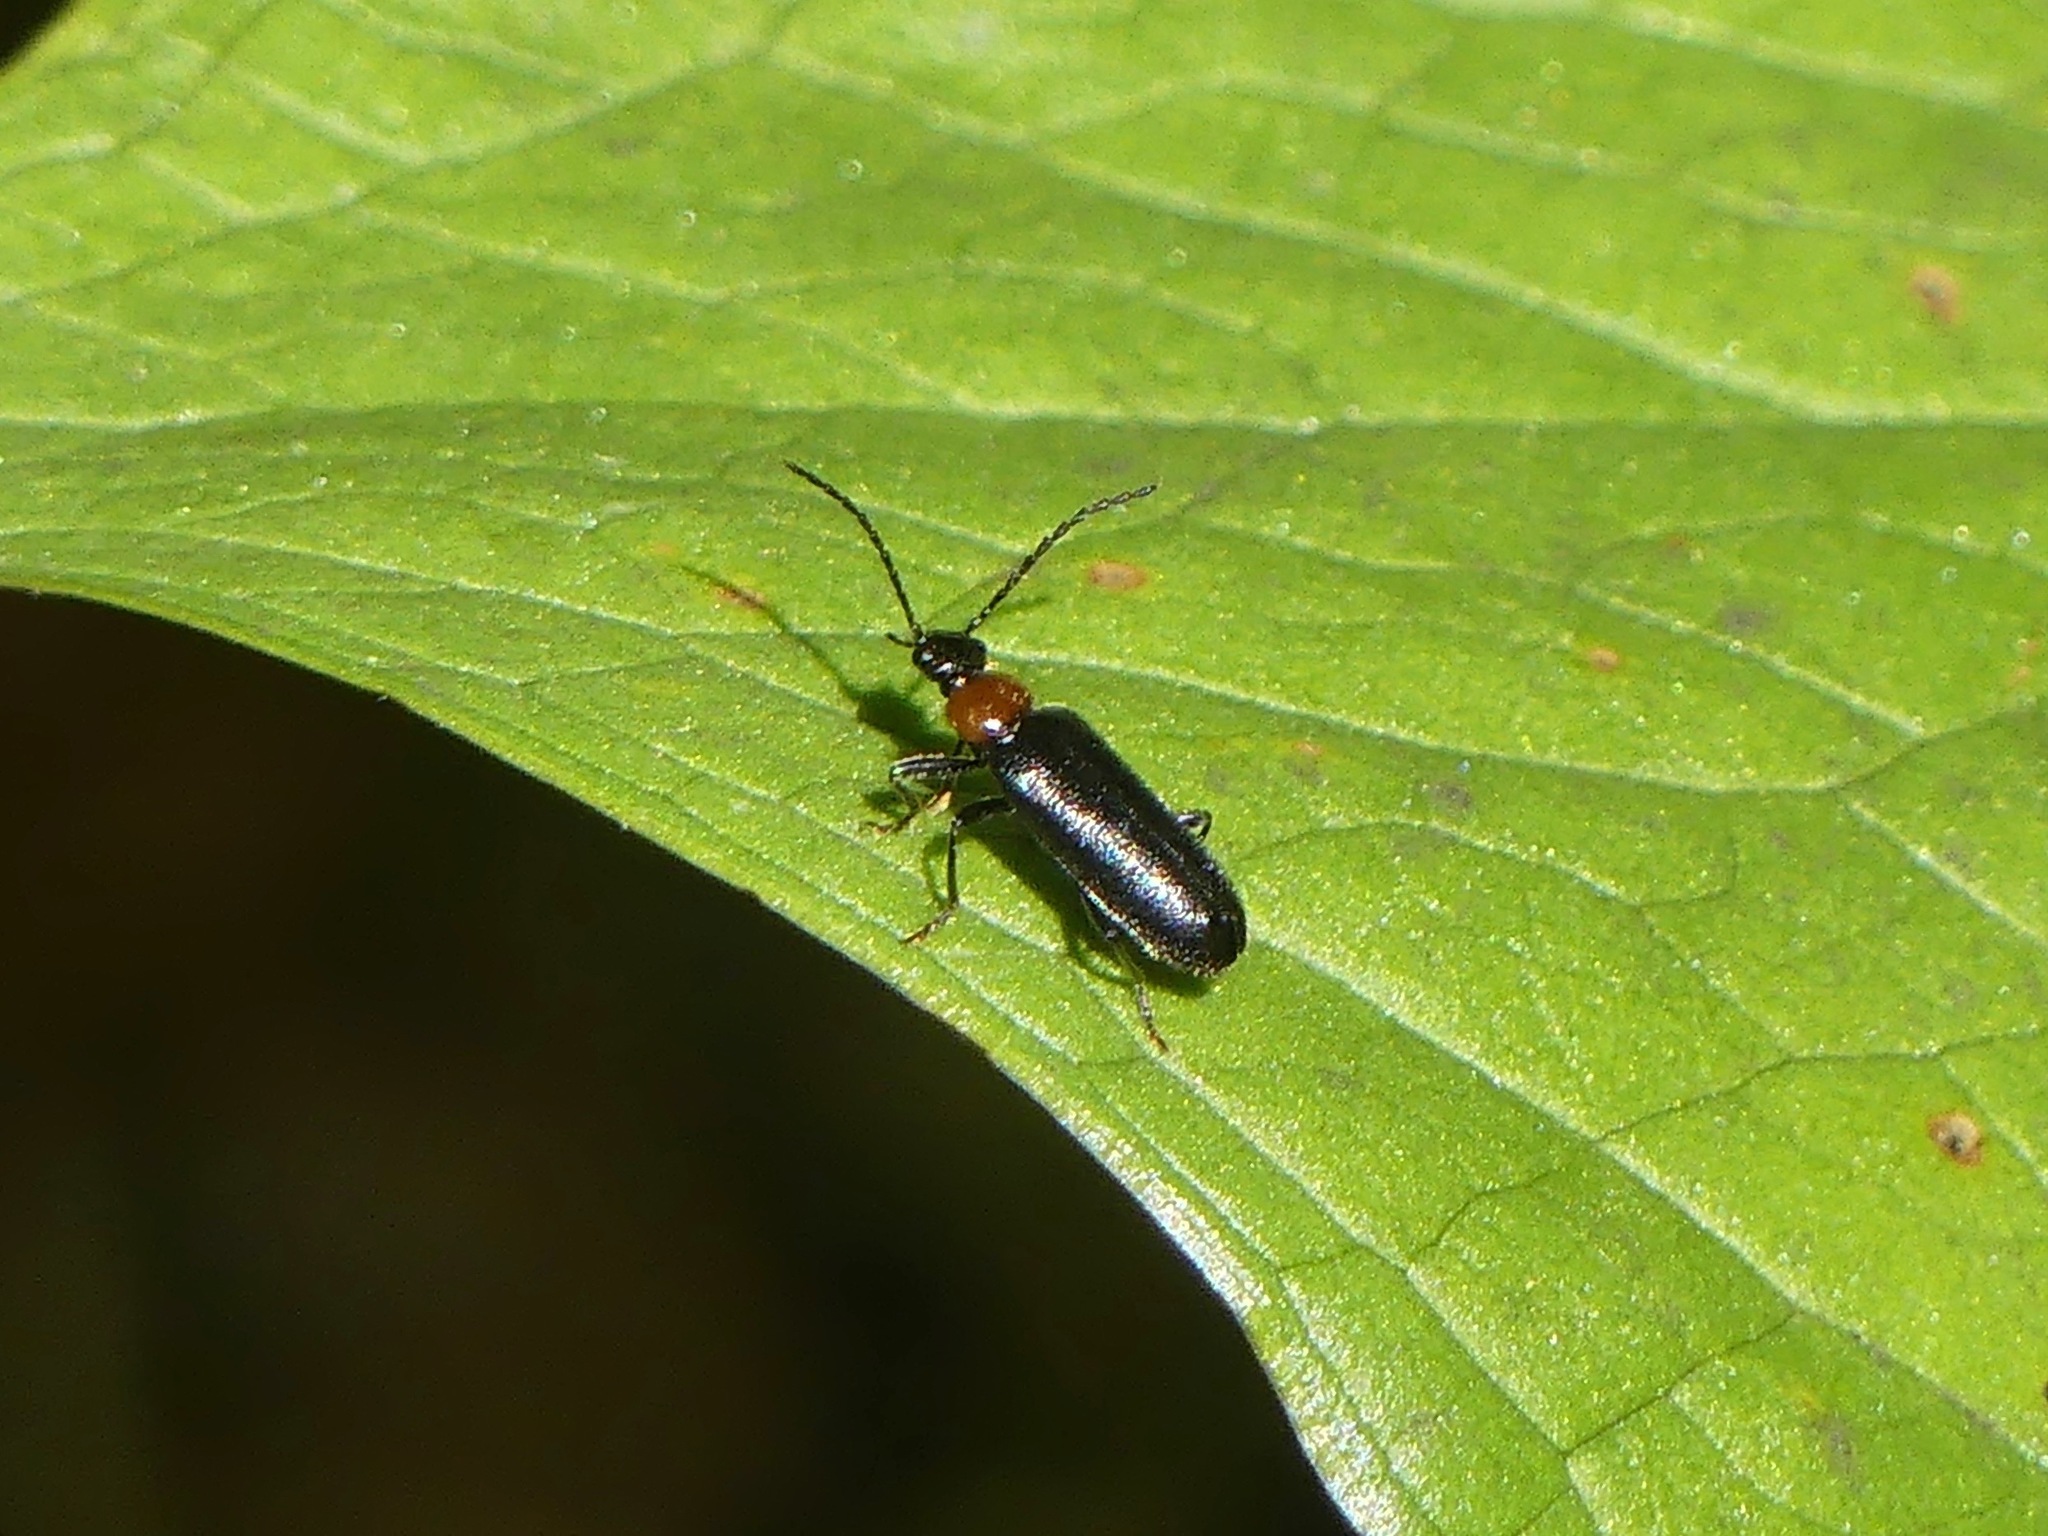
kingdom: Animalia
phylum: Arthropoda
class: Insecta
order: Coleoptera
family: Pyrochroidae
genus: Pedilus
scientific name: Pedilus lugubris
